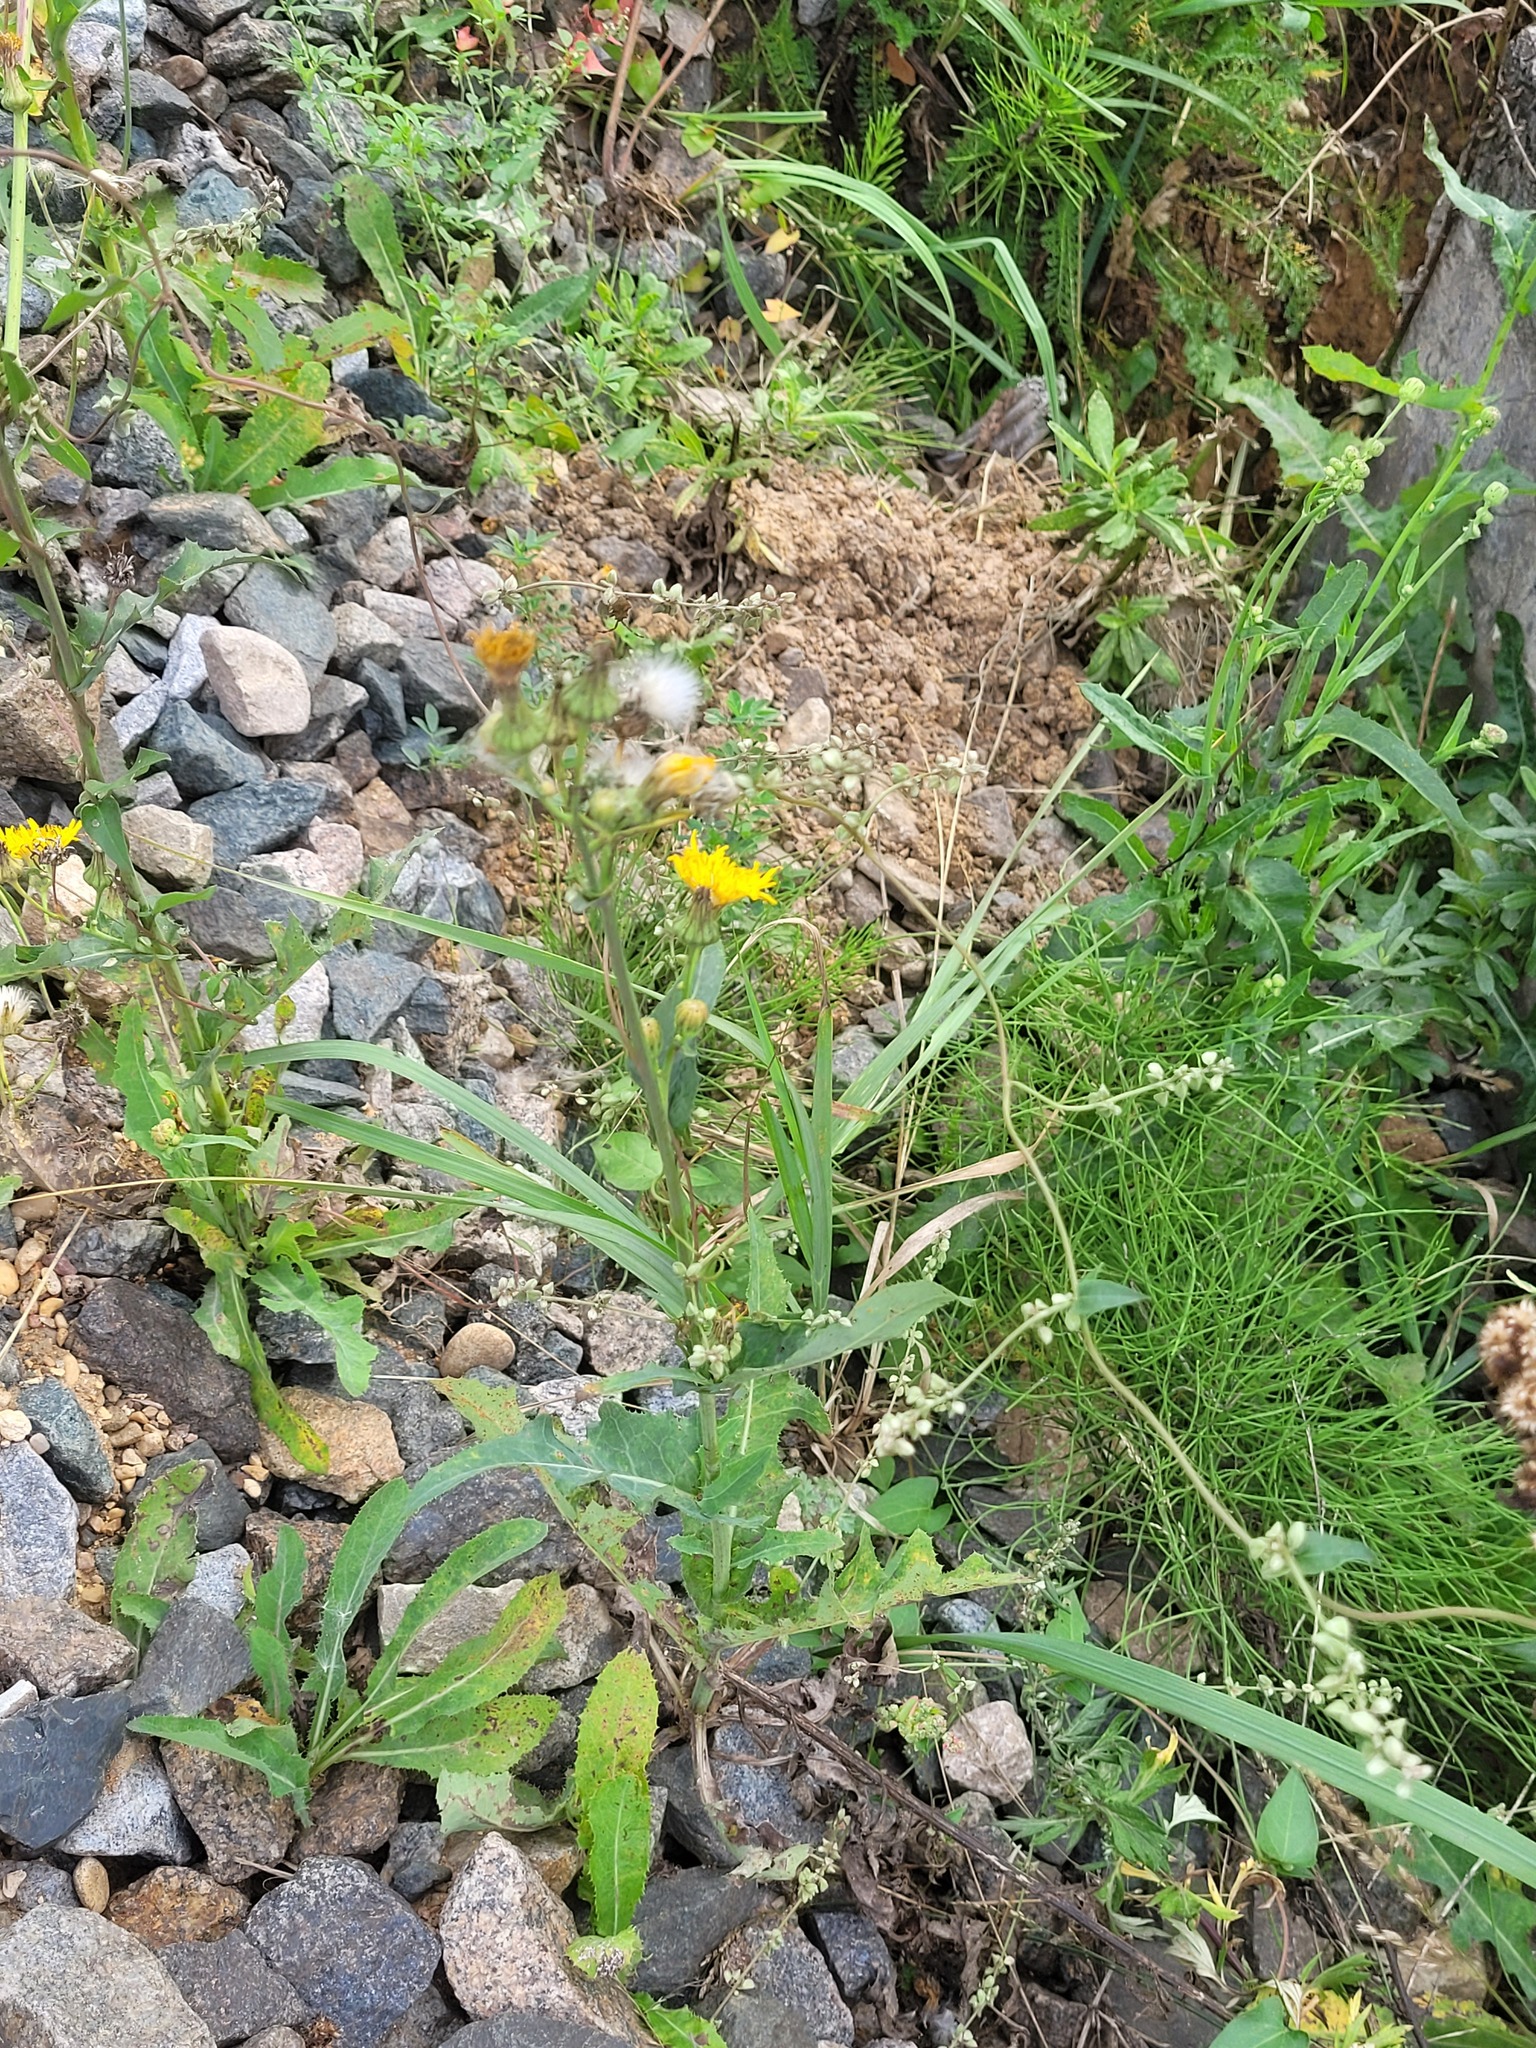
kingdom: Plantae
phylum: Tracheophyta
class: Magnoliopsida
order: Caryophyllales
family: Polygonaceae
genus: Fallopia
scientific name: Fallopia convolvulus
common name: Black bindweed
